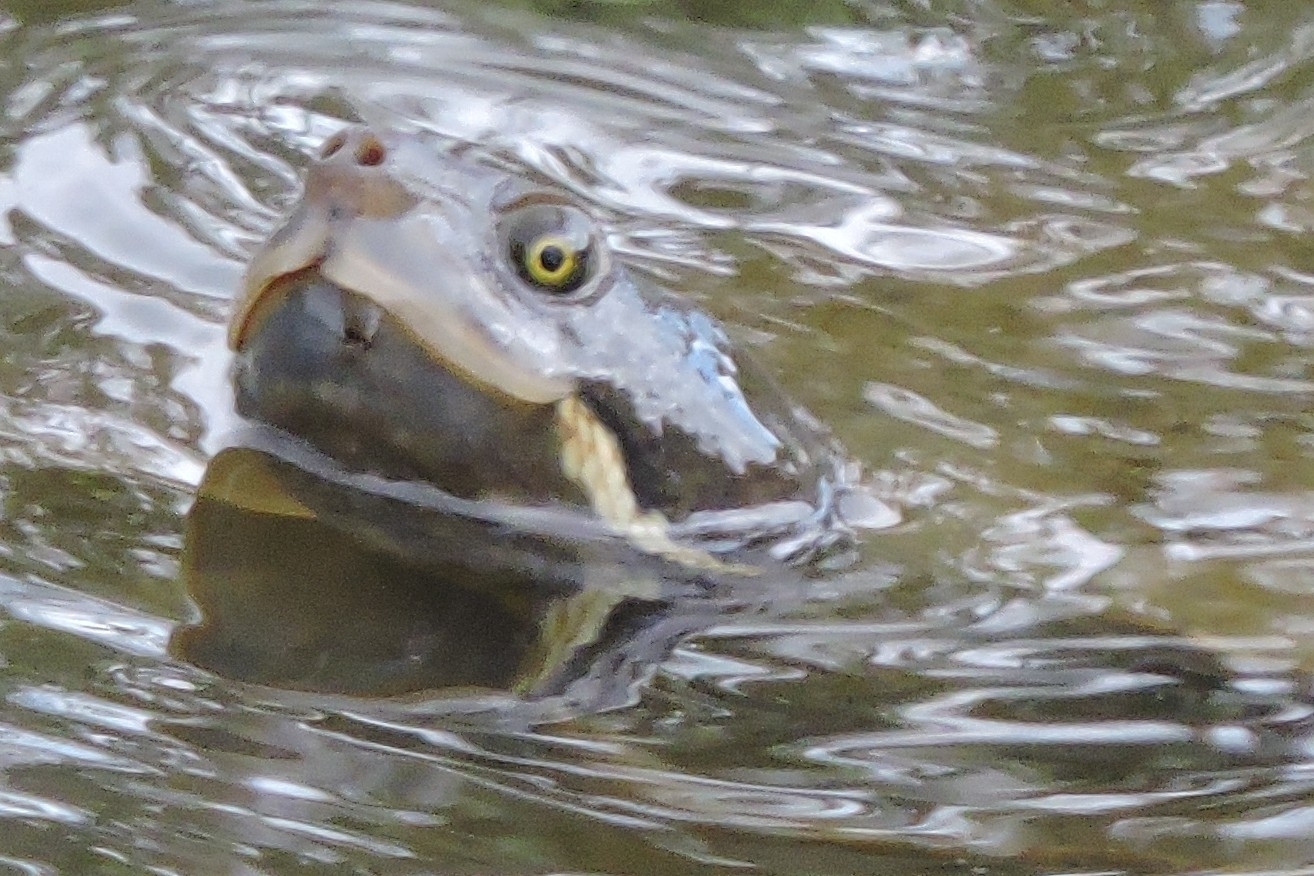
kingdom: Animalia
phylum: Chordata
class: Testudines
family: Chelidae
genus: Emydura
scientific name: Emydura macquarii
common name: Murray river turtle
